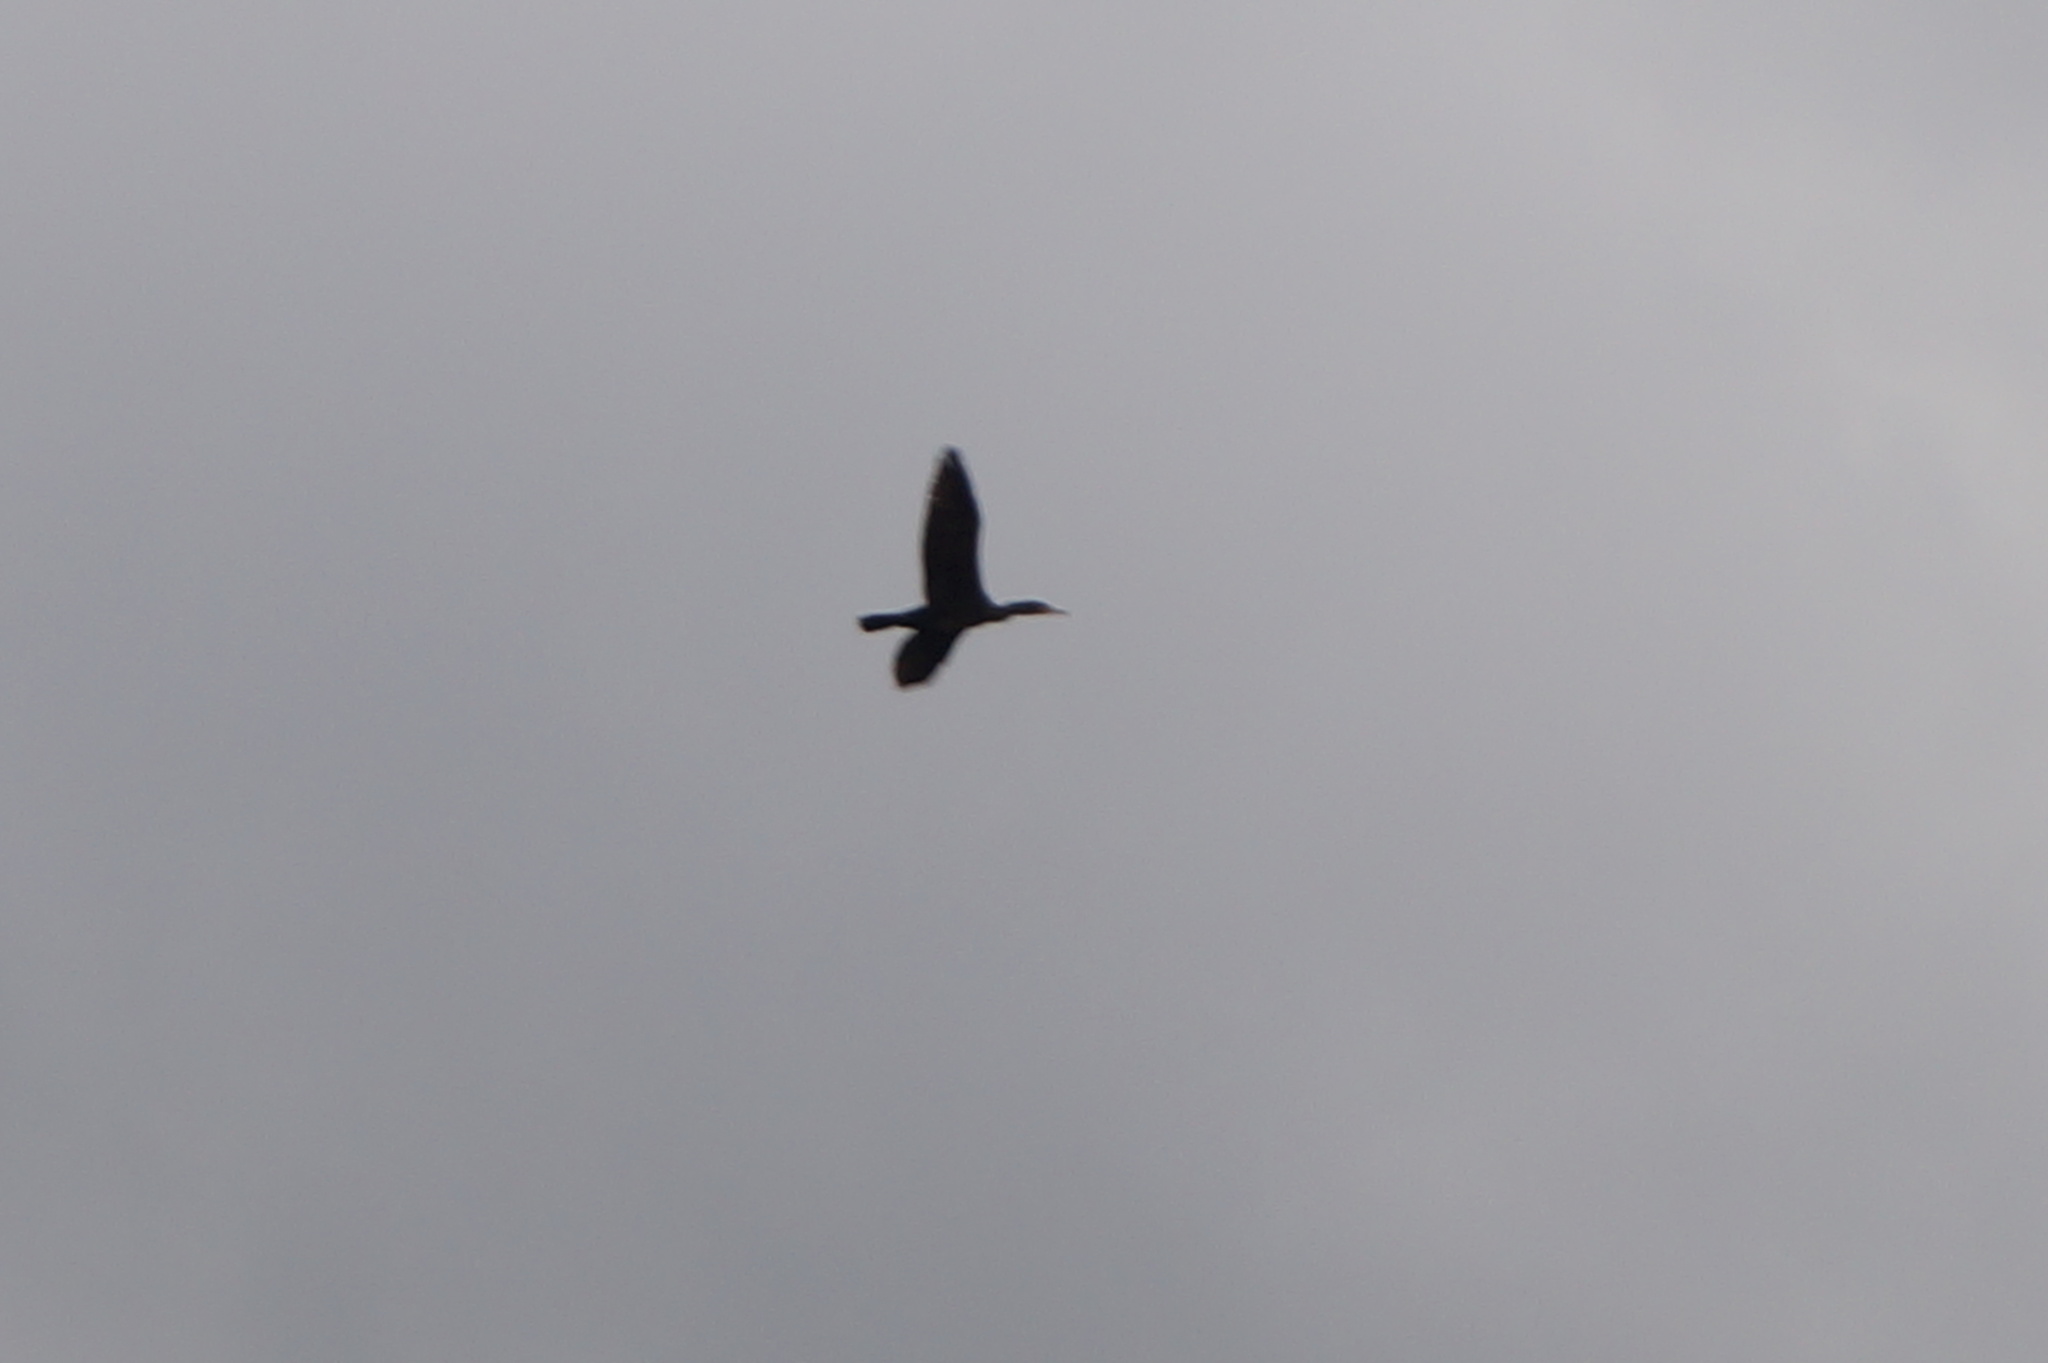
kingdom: Animalia
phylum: Chordata
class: Aves
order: Suliformes
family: Phalacrocoracidae
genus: Phalacrocorax
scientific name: Phalacrocorax carbo
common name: Great cormorant
